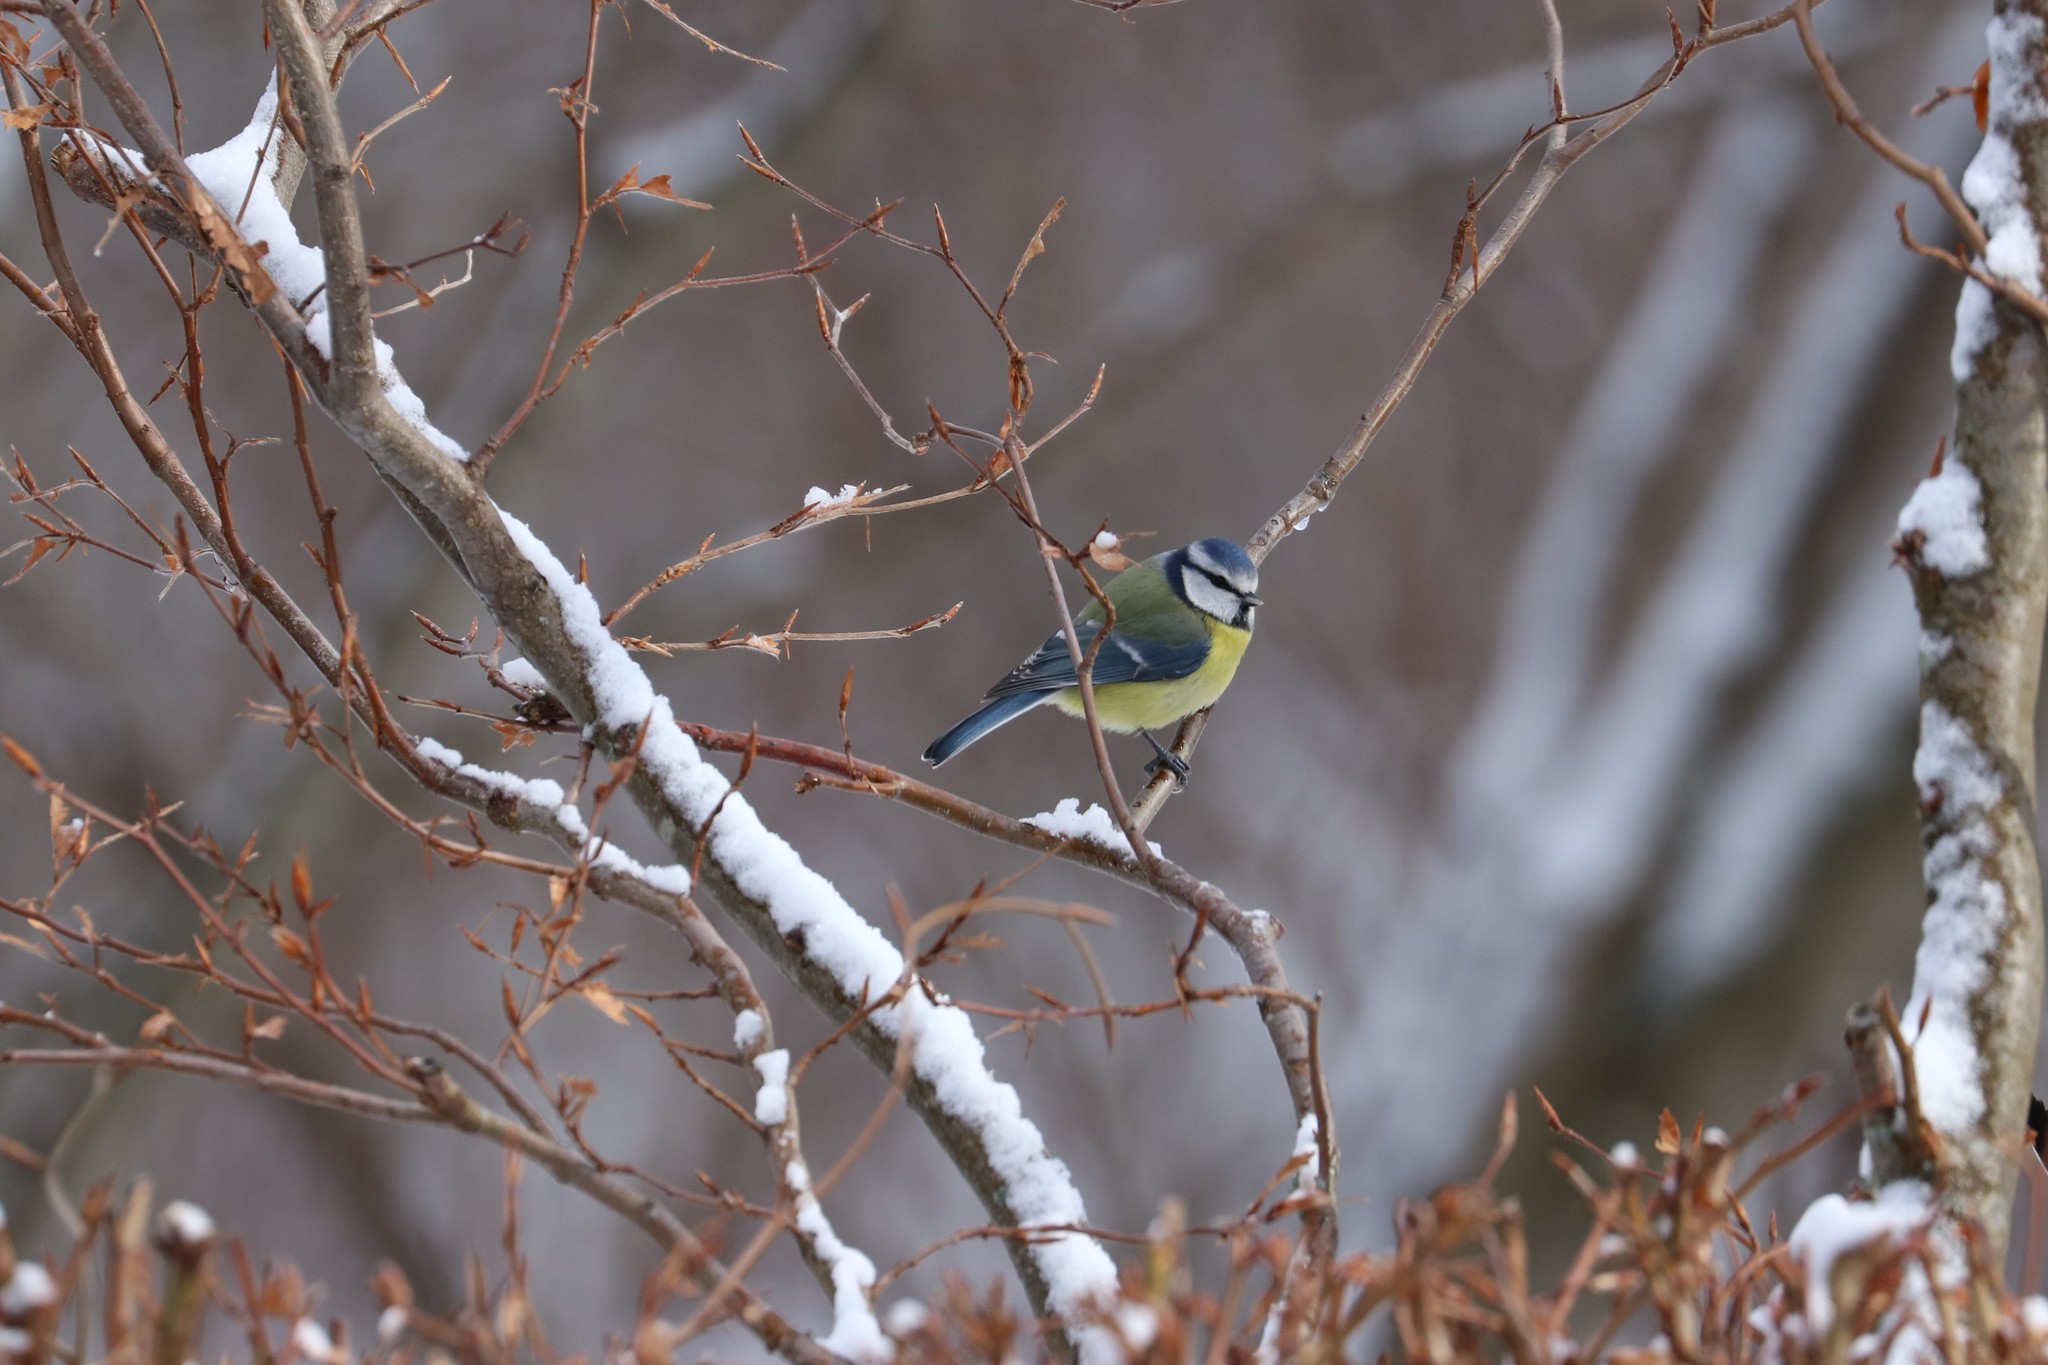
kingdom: Animalia
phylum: Chordata
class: Aves
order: Passeriformes
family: Paridae
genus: Cyanistes
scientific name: Cyanistes caeruleus
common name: Eurasian blue tit
